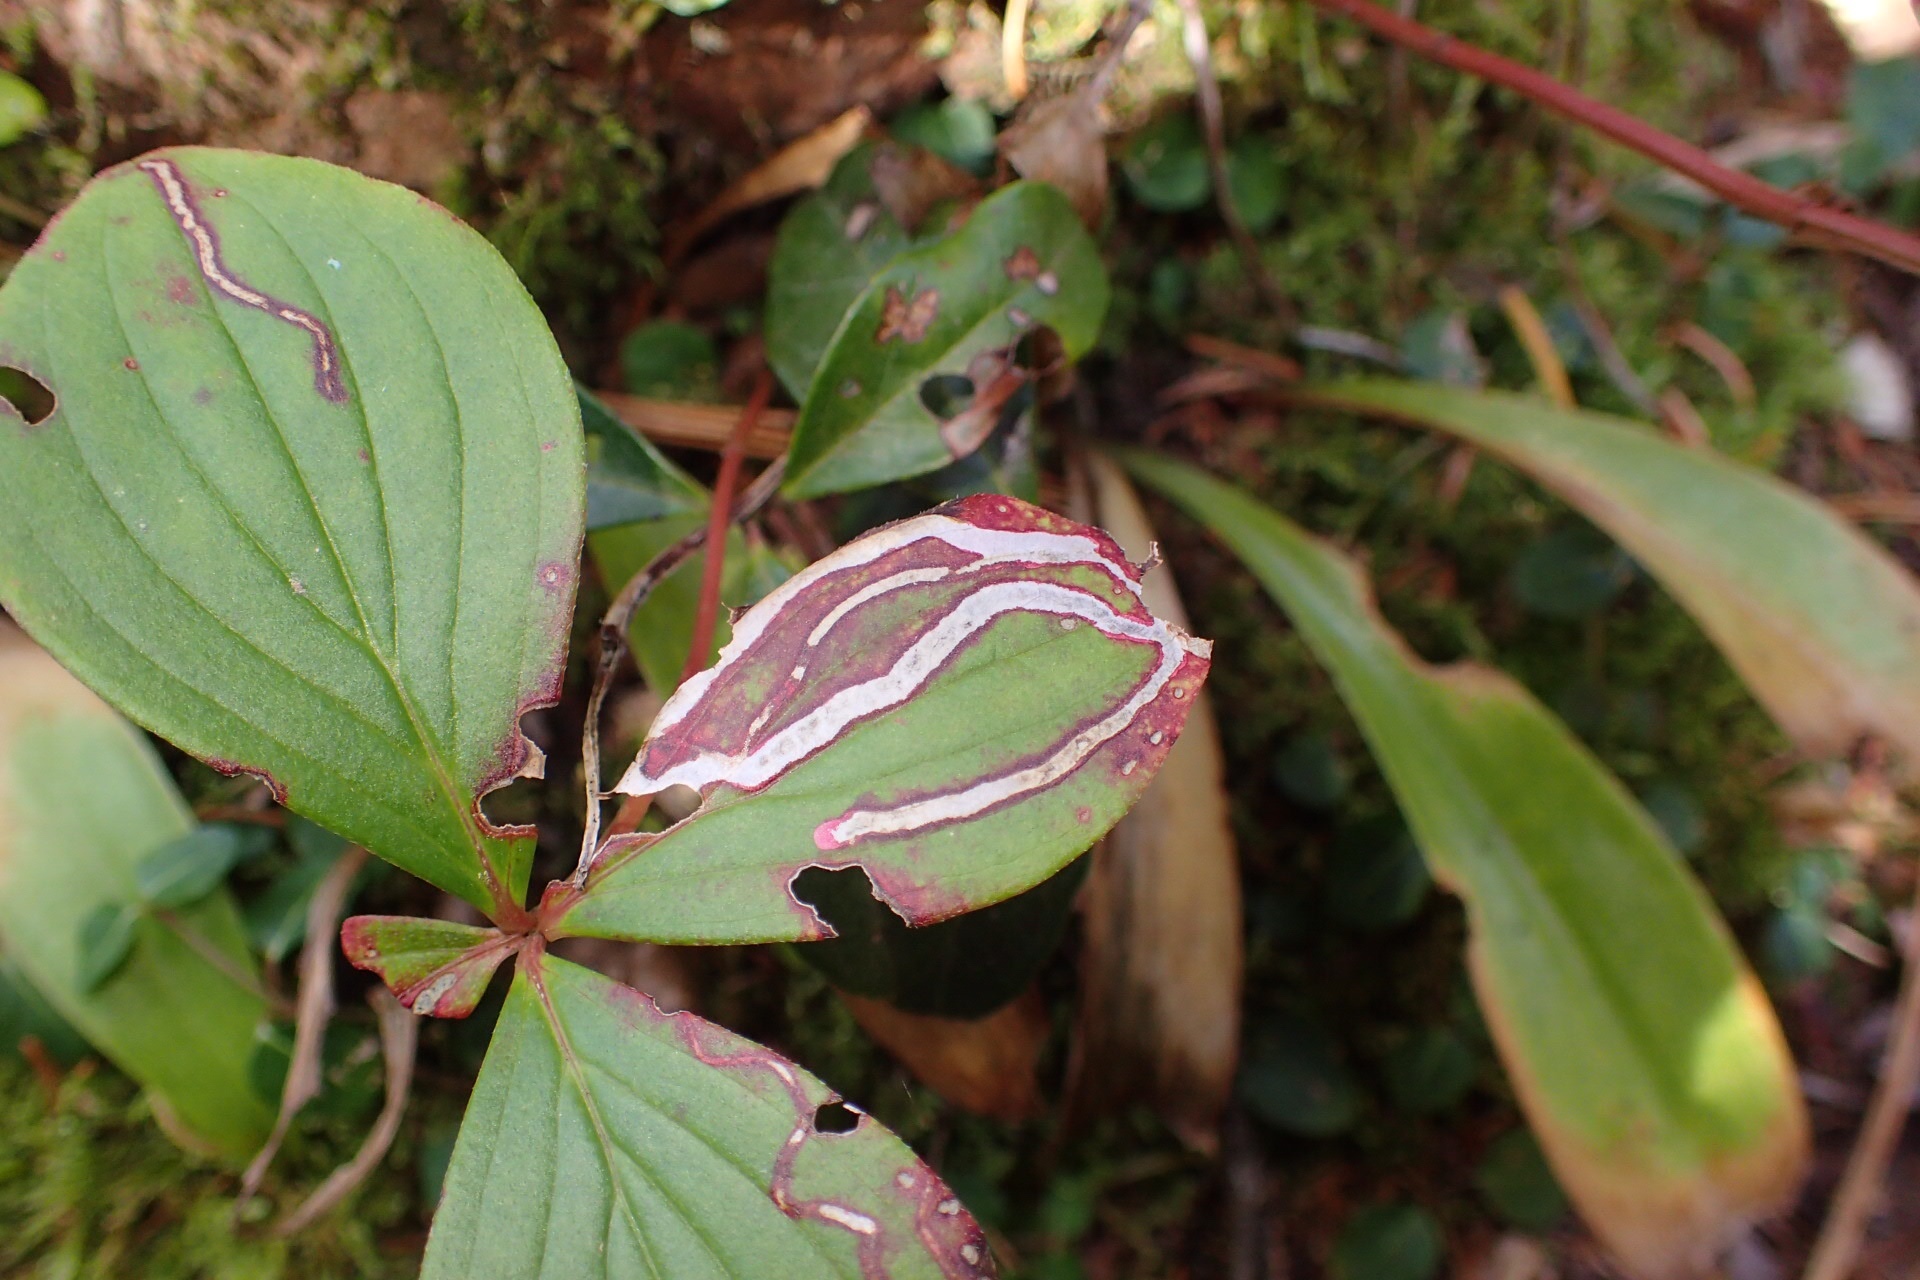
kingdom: Animalia
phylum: Arthropoda
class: Insecta
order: Diptera
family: Agromyzidae
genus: Phytomyza
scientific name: Phytomyza agromyzina
